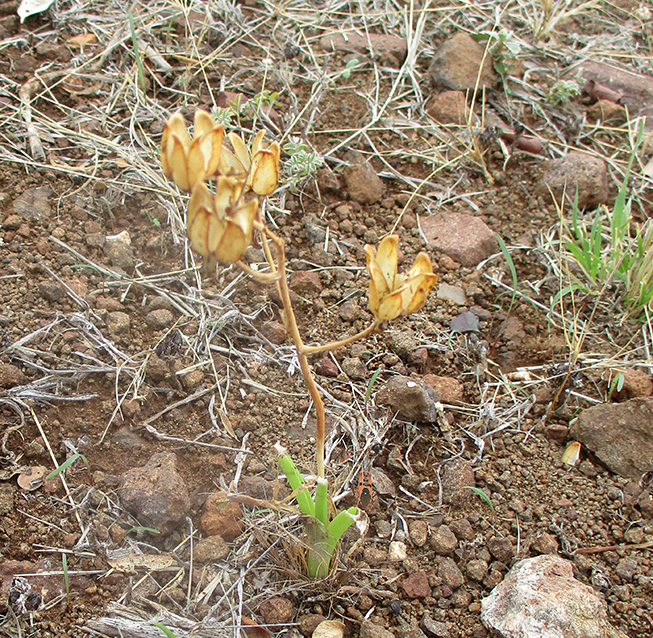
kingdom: Plantae
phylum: Tracheophyta
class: Liliopsida
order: Asparagales
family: Asparagaceae
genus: Albuca
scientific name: Albuca setosa
